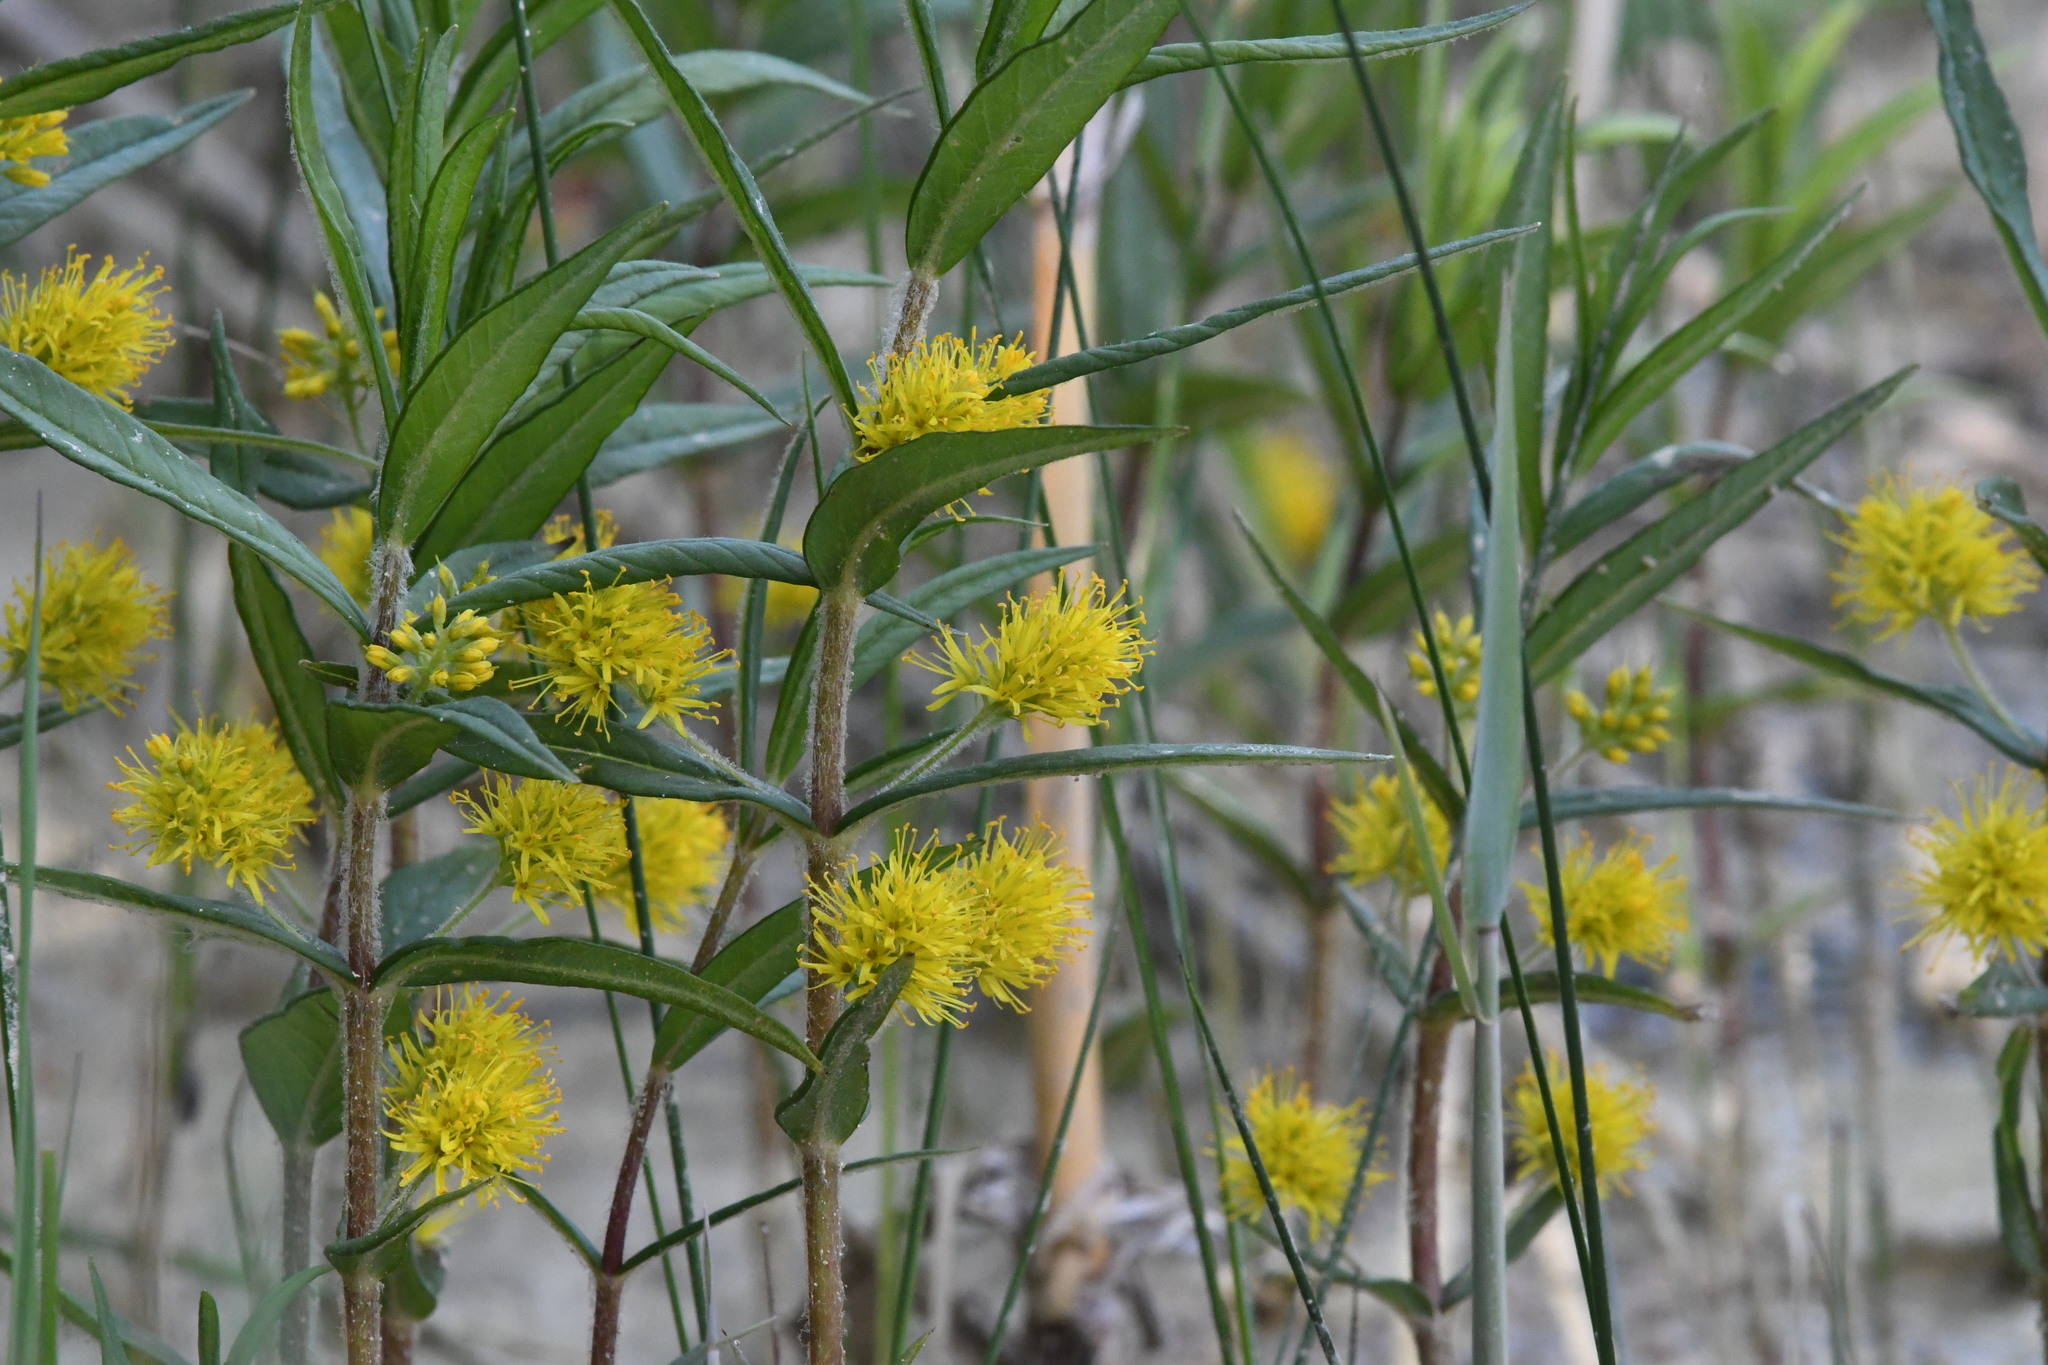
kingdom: Plantae
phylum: Tracheophyta
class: Magnoliopsida
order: Ericales
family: Primulaceae
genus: Lysimachia
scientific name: Lysimachia thyrsiflora
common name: Tufted loosestrife
